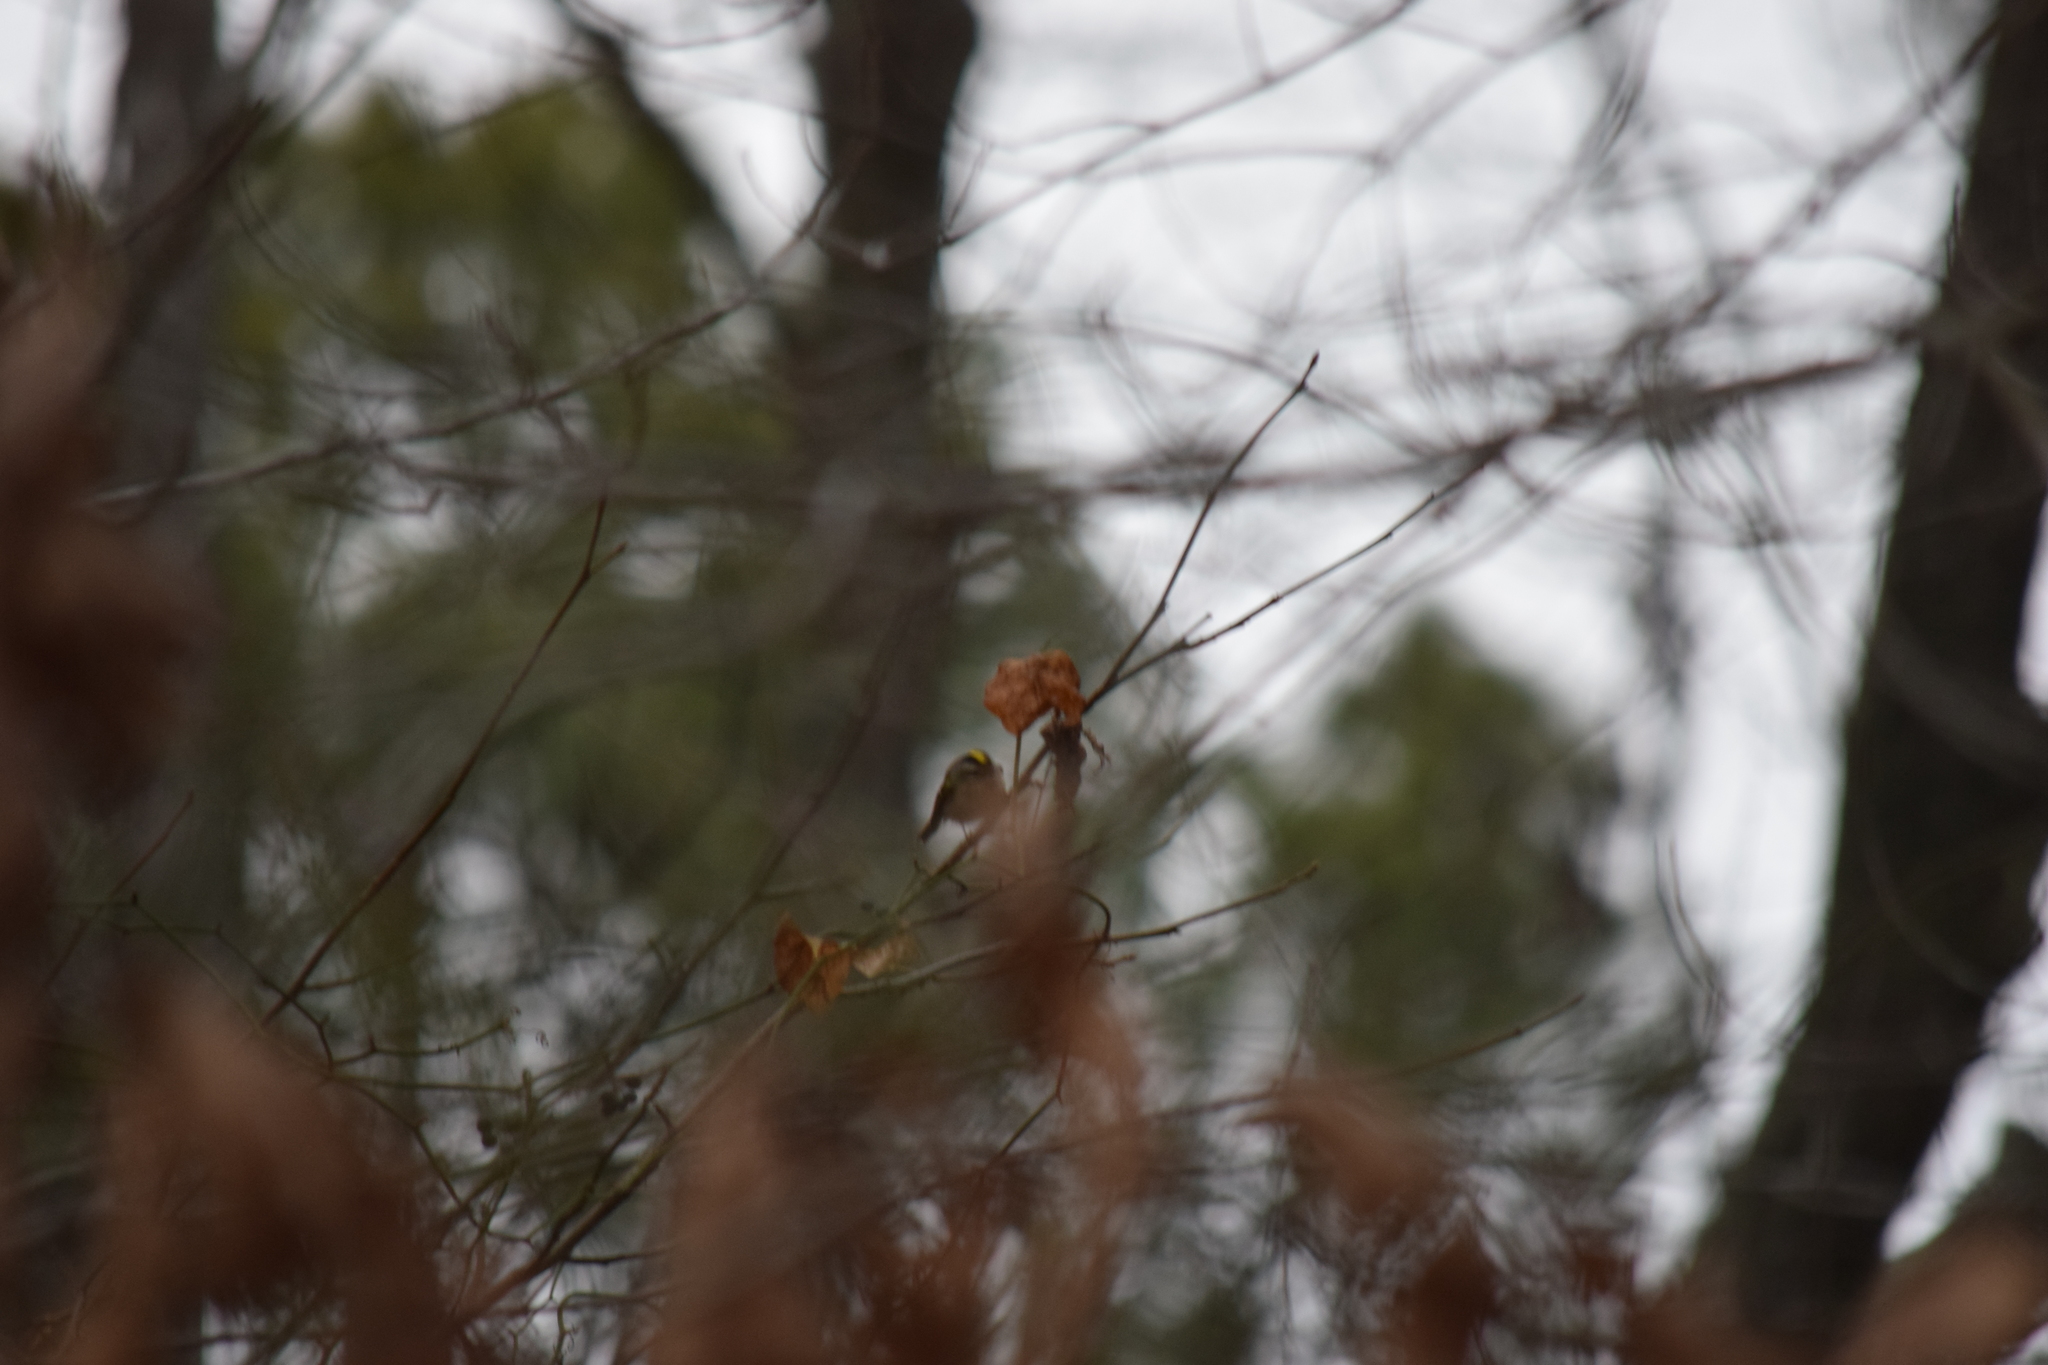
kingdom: Animalia
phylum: Chordata
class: Aves
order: Passeriformes
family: Regulidae
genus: Regulus
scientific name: Regulus satrapa
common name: Golden-crowned kinglet
